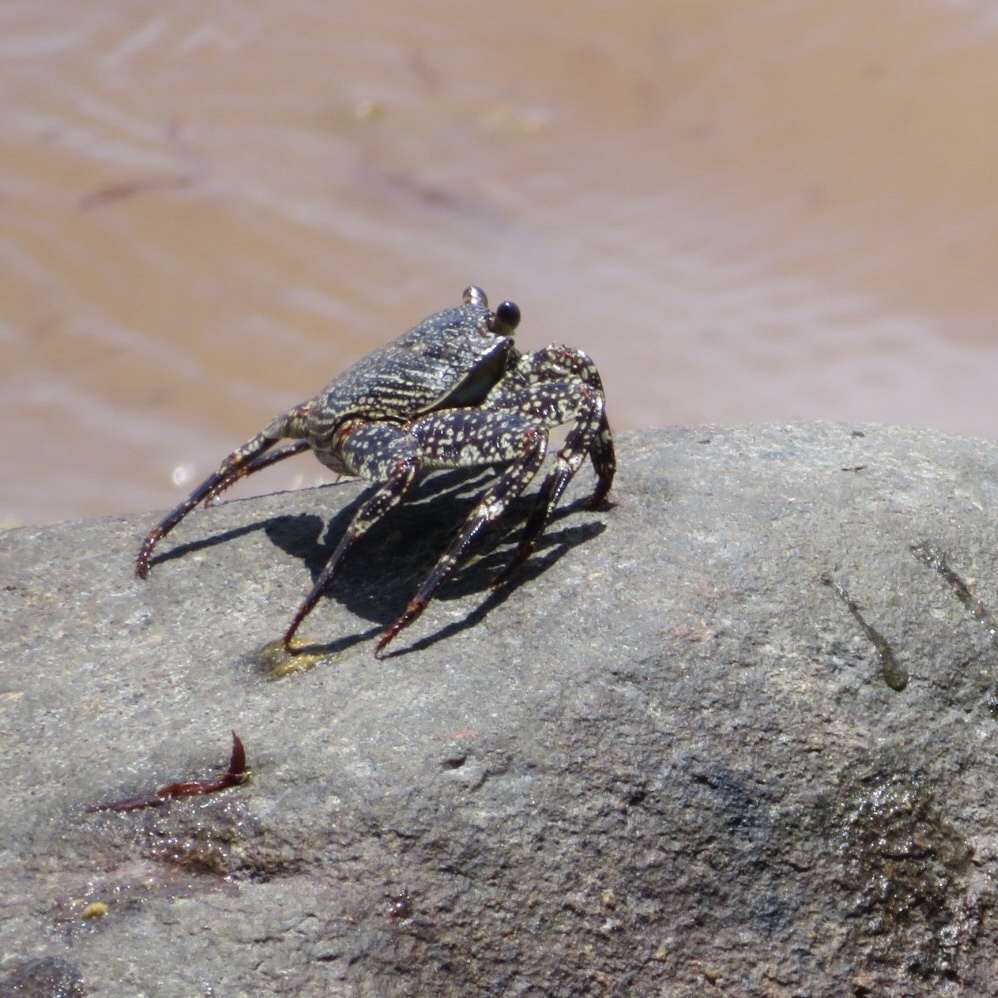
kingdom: Animalia
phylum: Arthropoda
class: Malacostraca
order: Decapoda
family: Grapsidae
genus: Grapsus
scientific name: Grapsus grapsus
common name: Sally lightfoot
